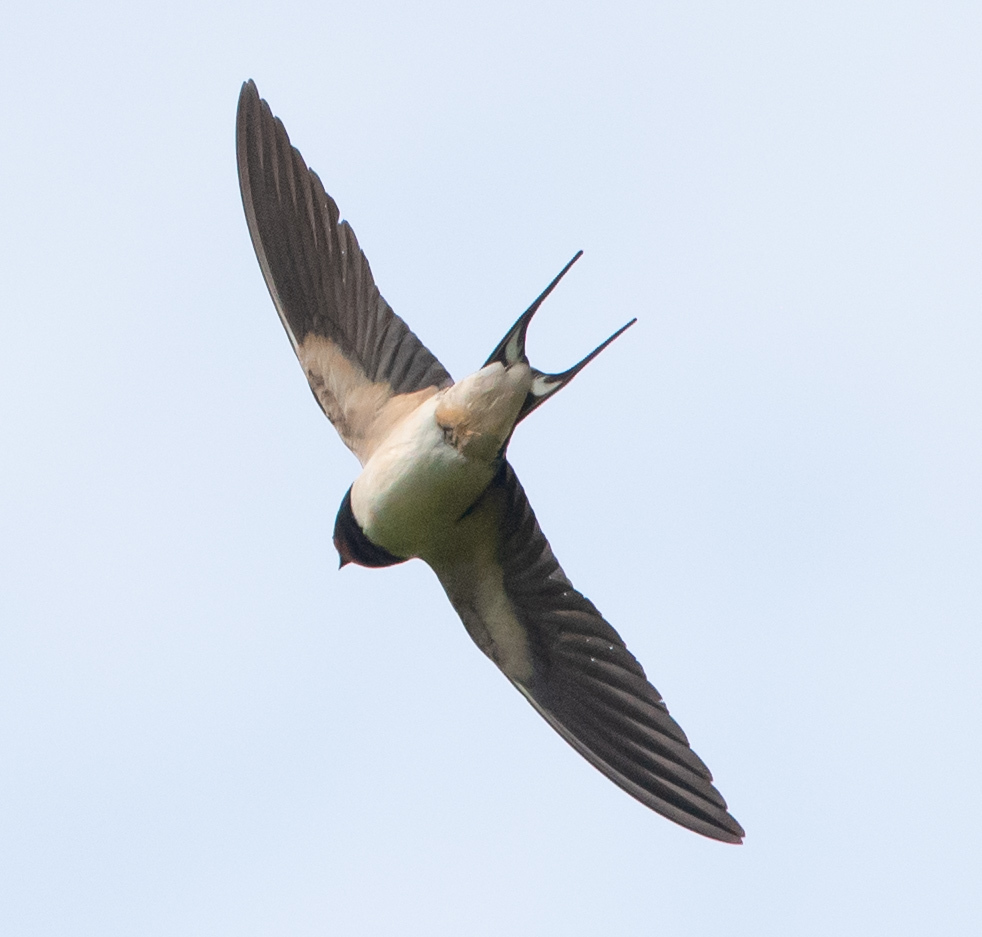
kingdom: Animalia
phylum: Chordata
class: Aves
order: Passeriformes
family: Hirundinidae
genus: Hirundo
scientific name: Hirundo rustica
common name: Barn swallow
